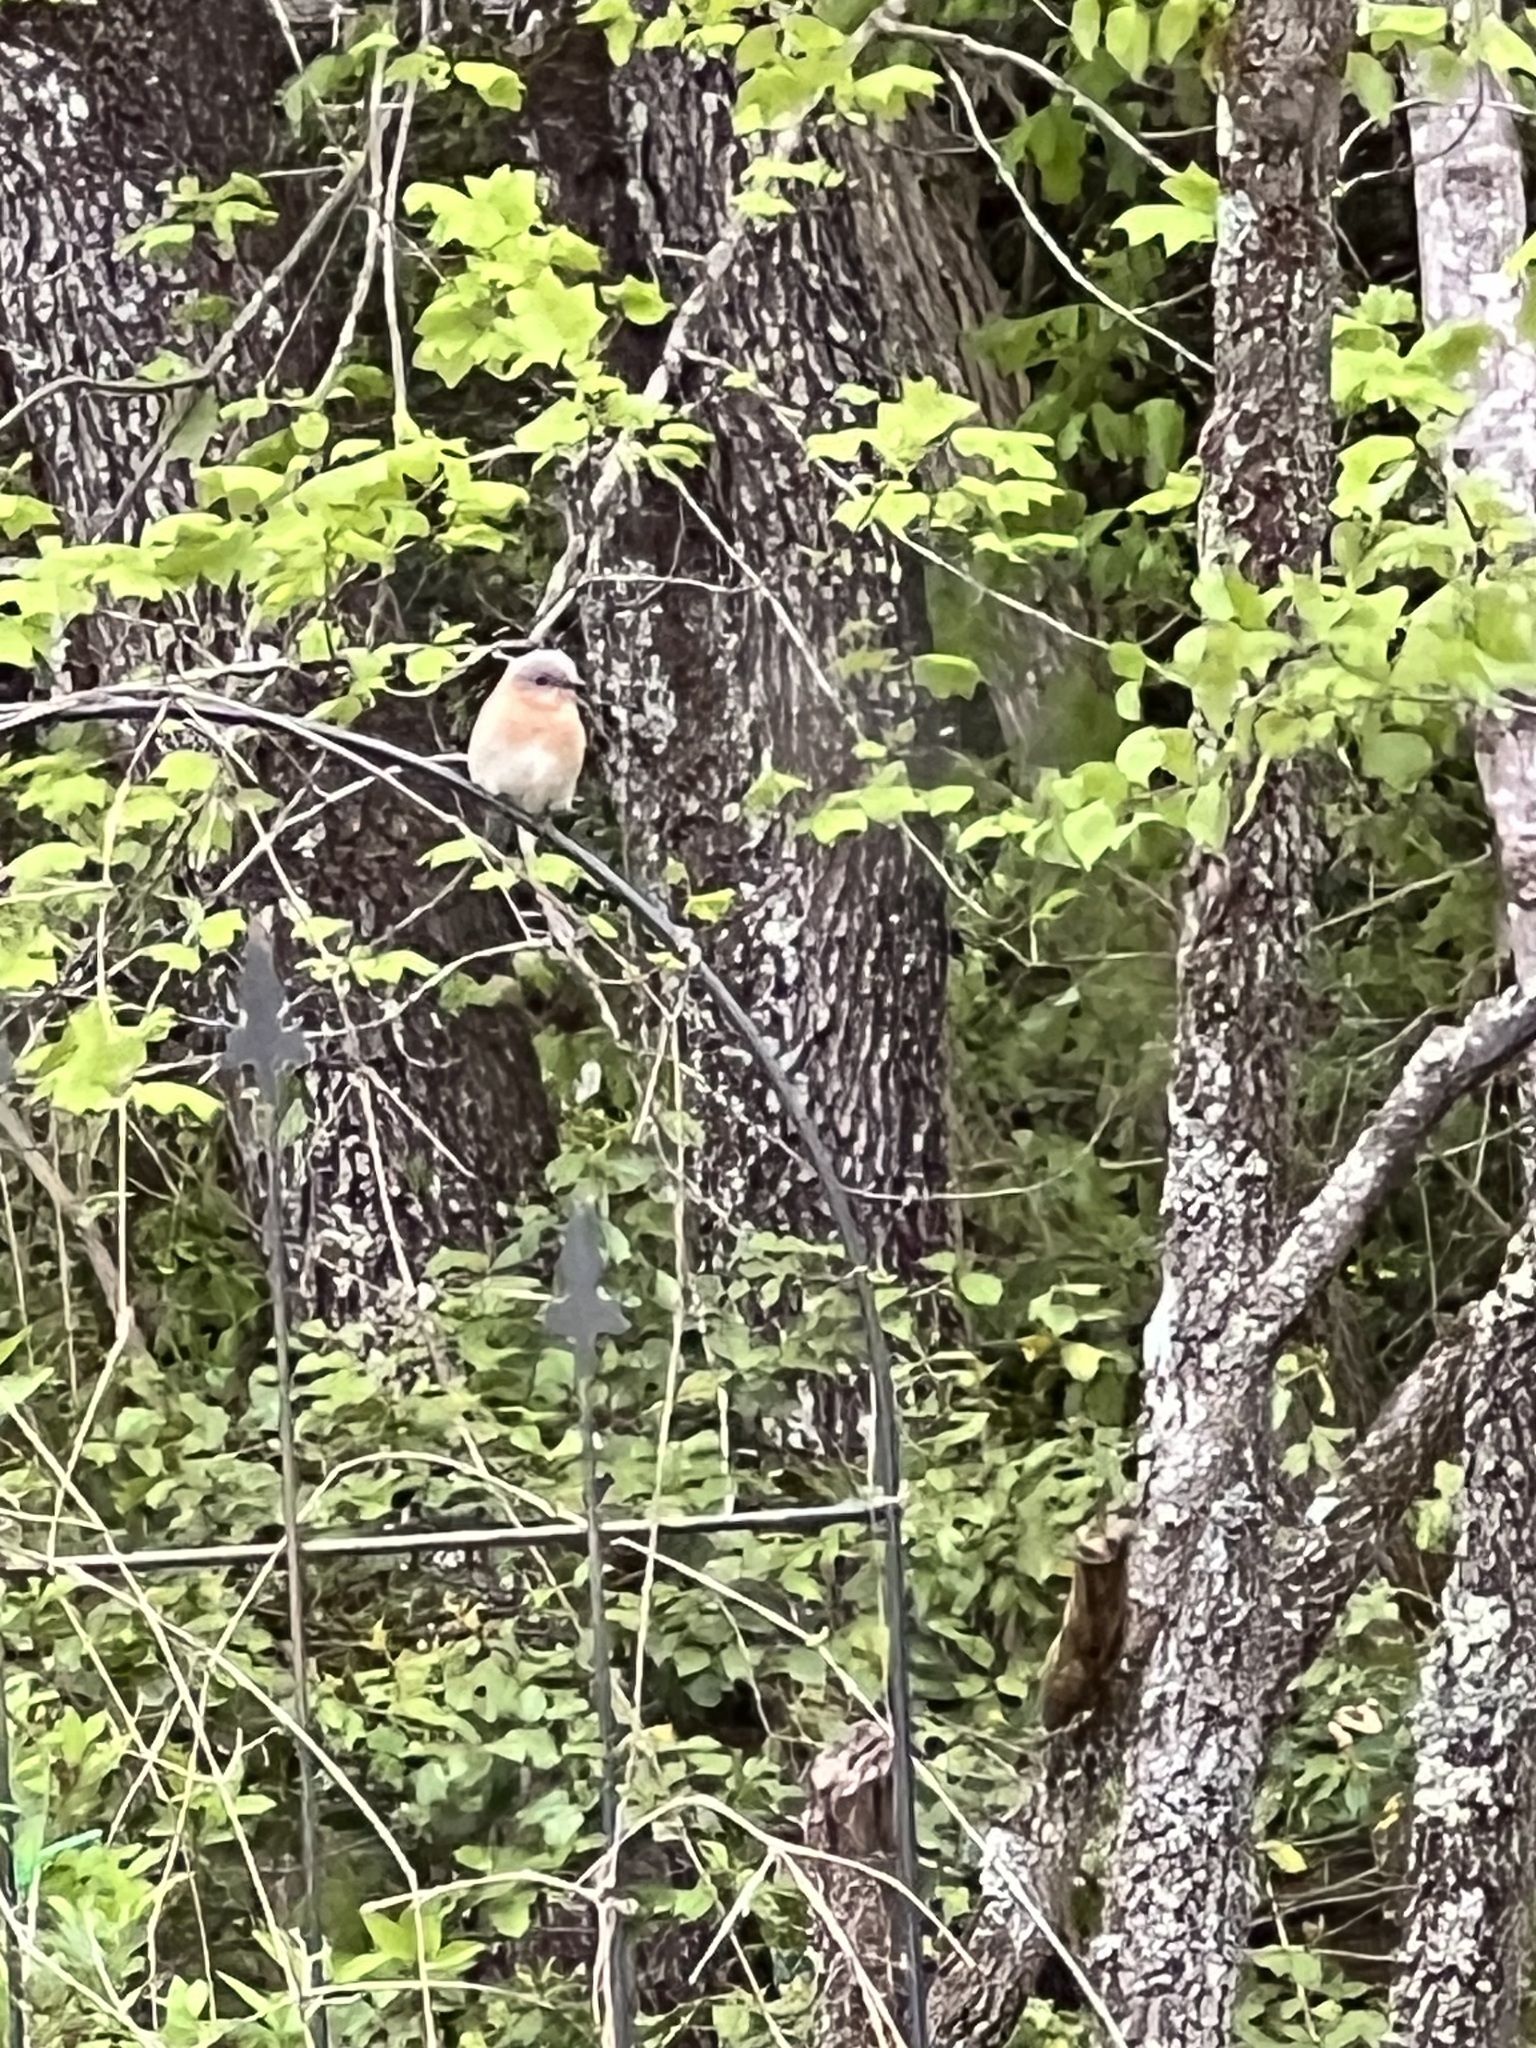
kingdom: Animalia
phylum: Chordata
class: Aves
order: Passeriformes
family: Turdidae
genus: Sialia
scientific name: Sialia sialis
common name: Eastern bluebird
